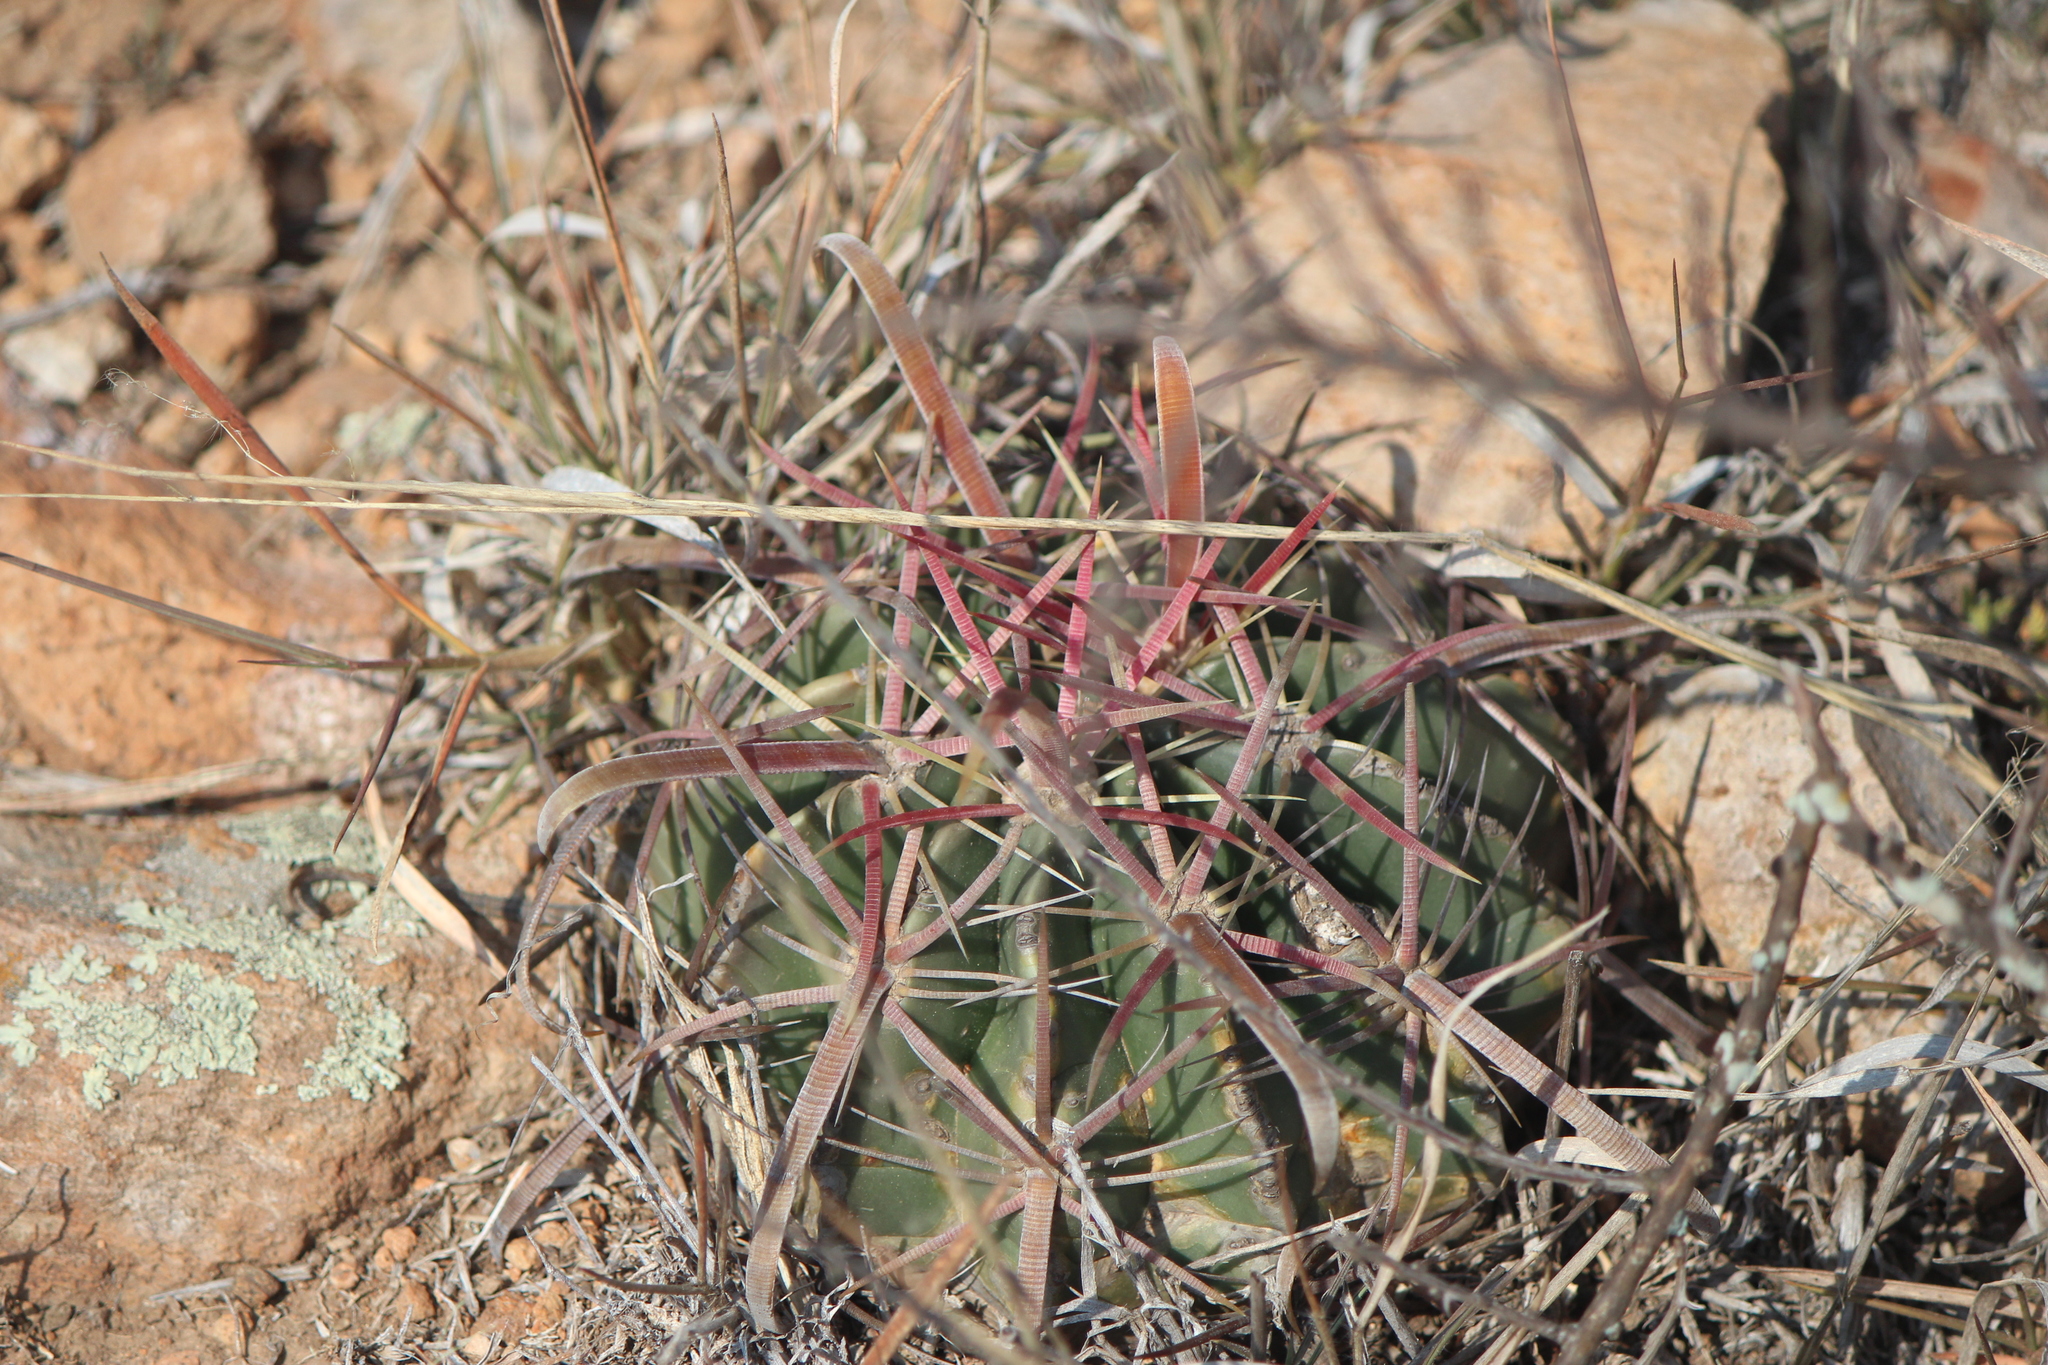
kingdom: Plantae
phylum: Tracheophyta
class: Magnoliopsida
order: Caryophyllales
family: Cactaceae
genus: Ferocactus
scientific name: Ferocactus latispinus
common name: Devil's-tongue cactus
